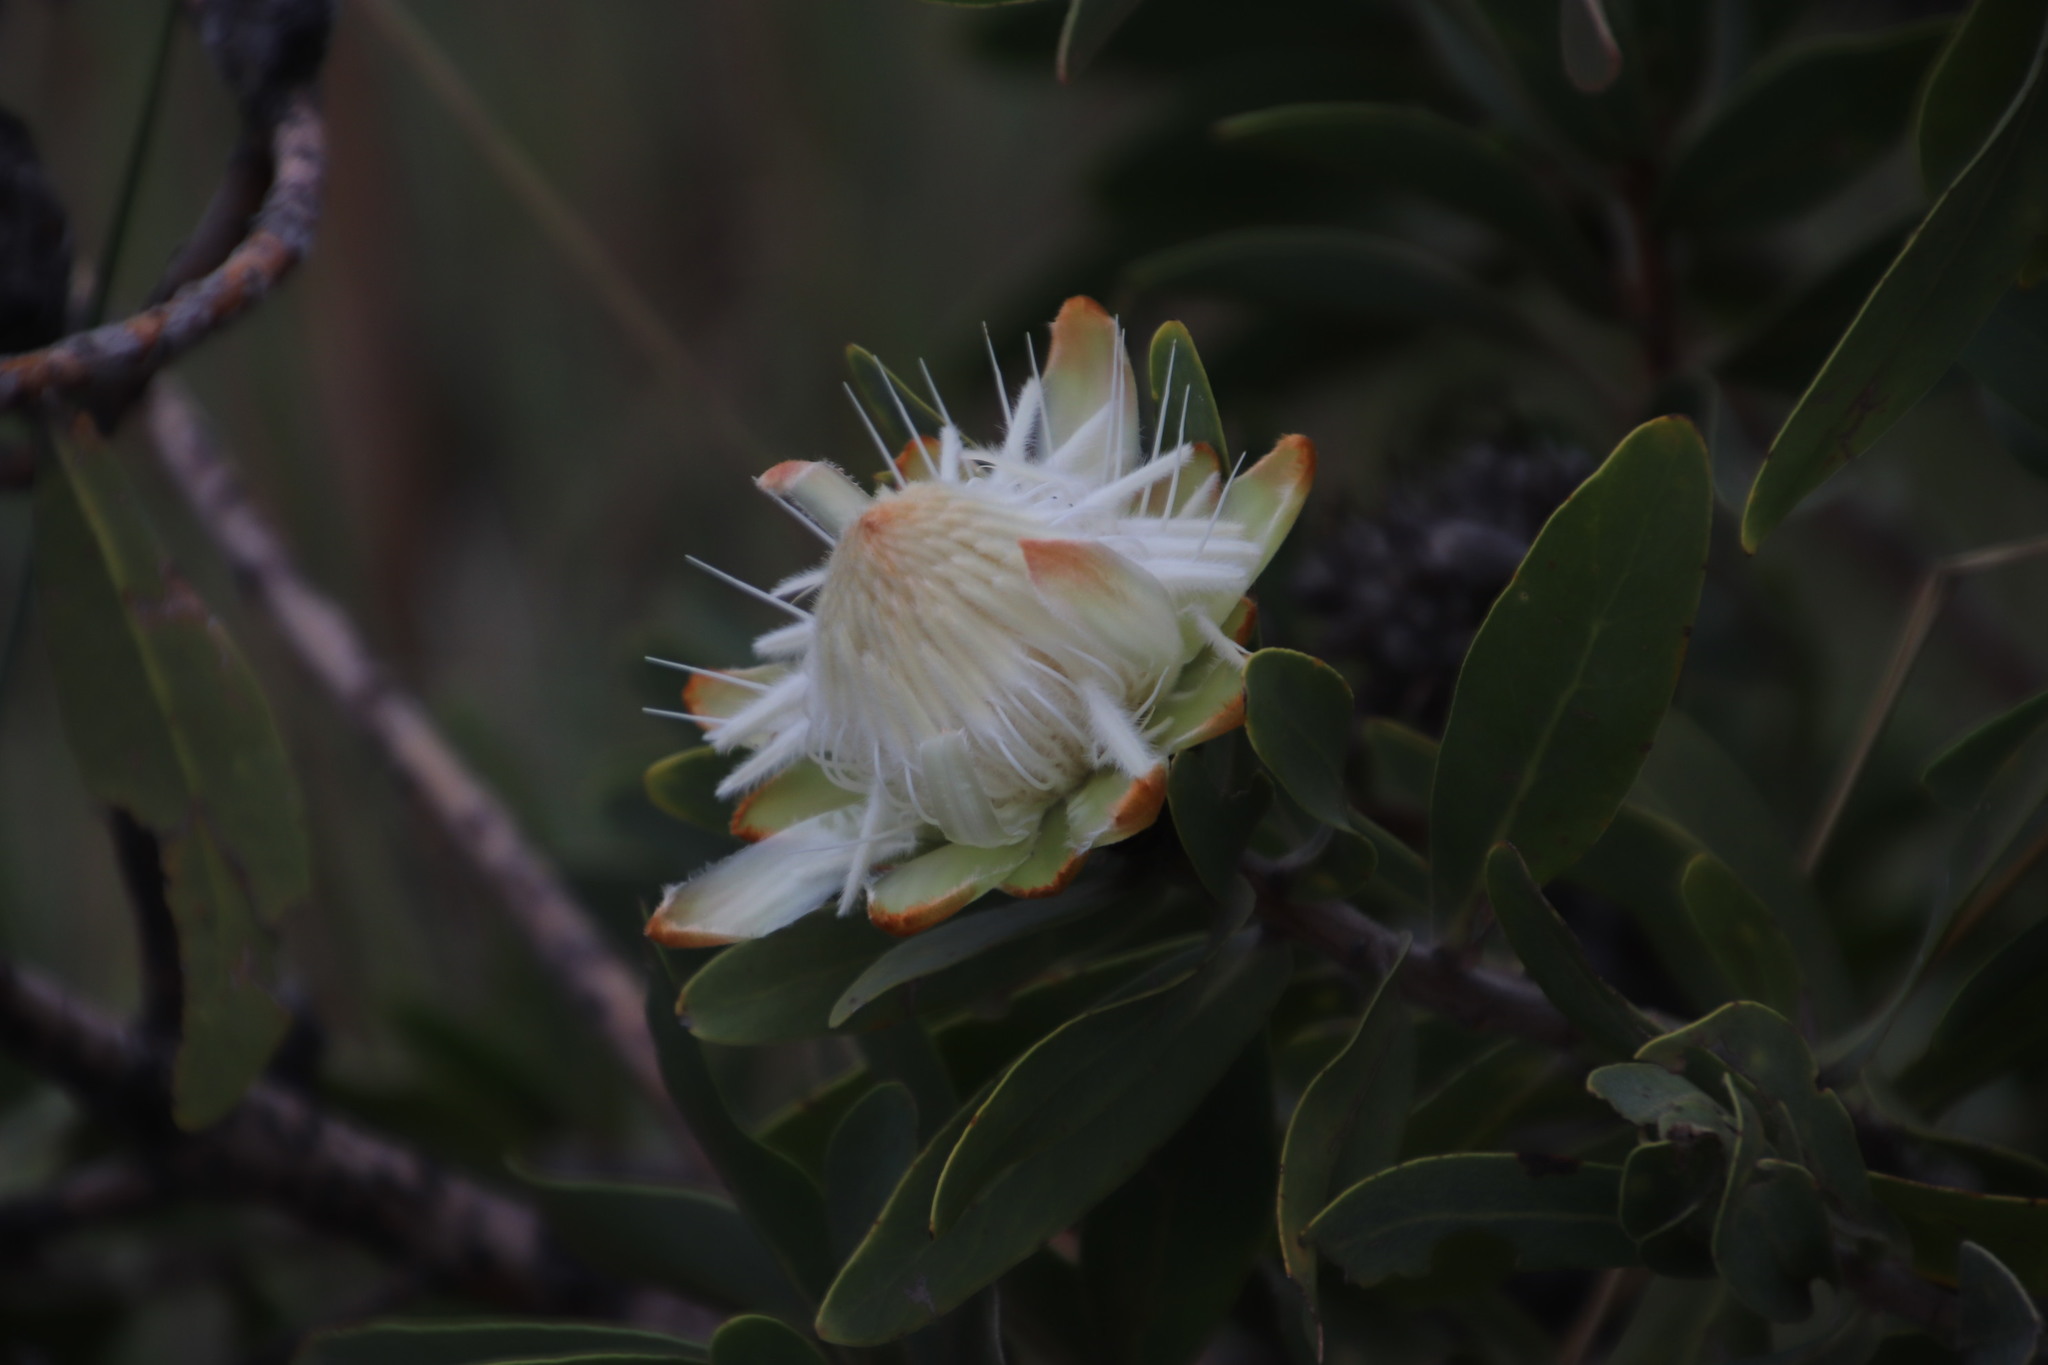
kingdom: Plantae
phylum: Tracheophyta
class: Magnoliopsida
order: Proteales
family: Proteaceae
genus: Protea
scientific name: Protea welwitschii
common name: Cluster-head protea
